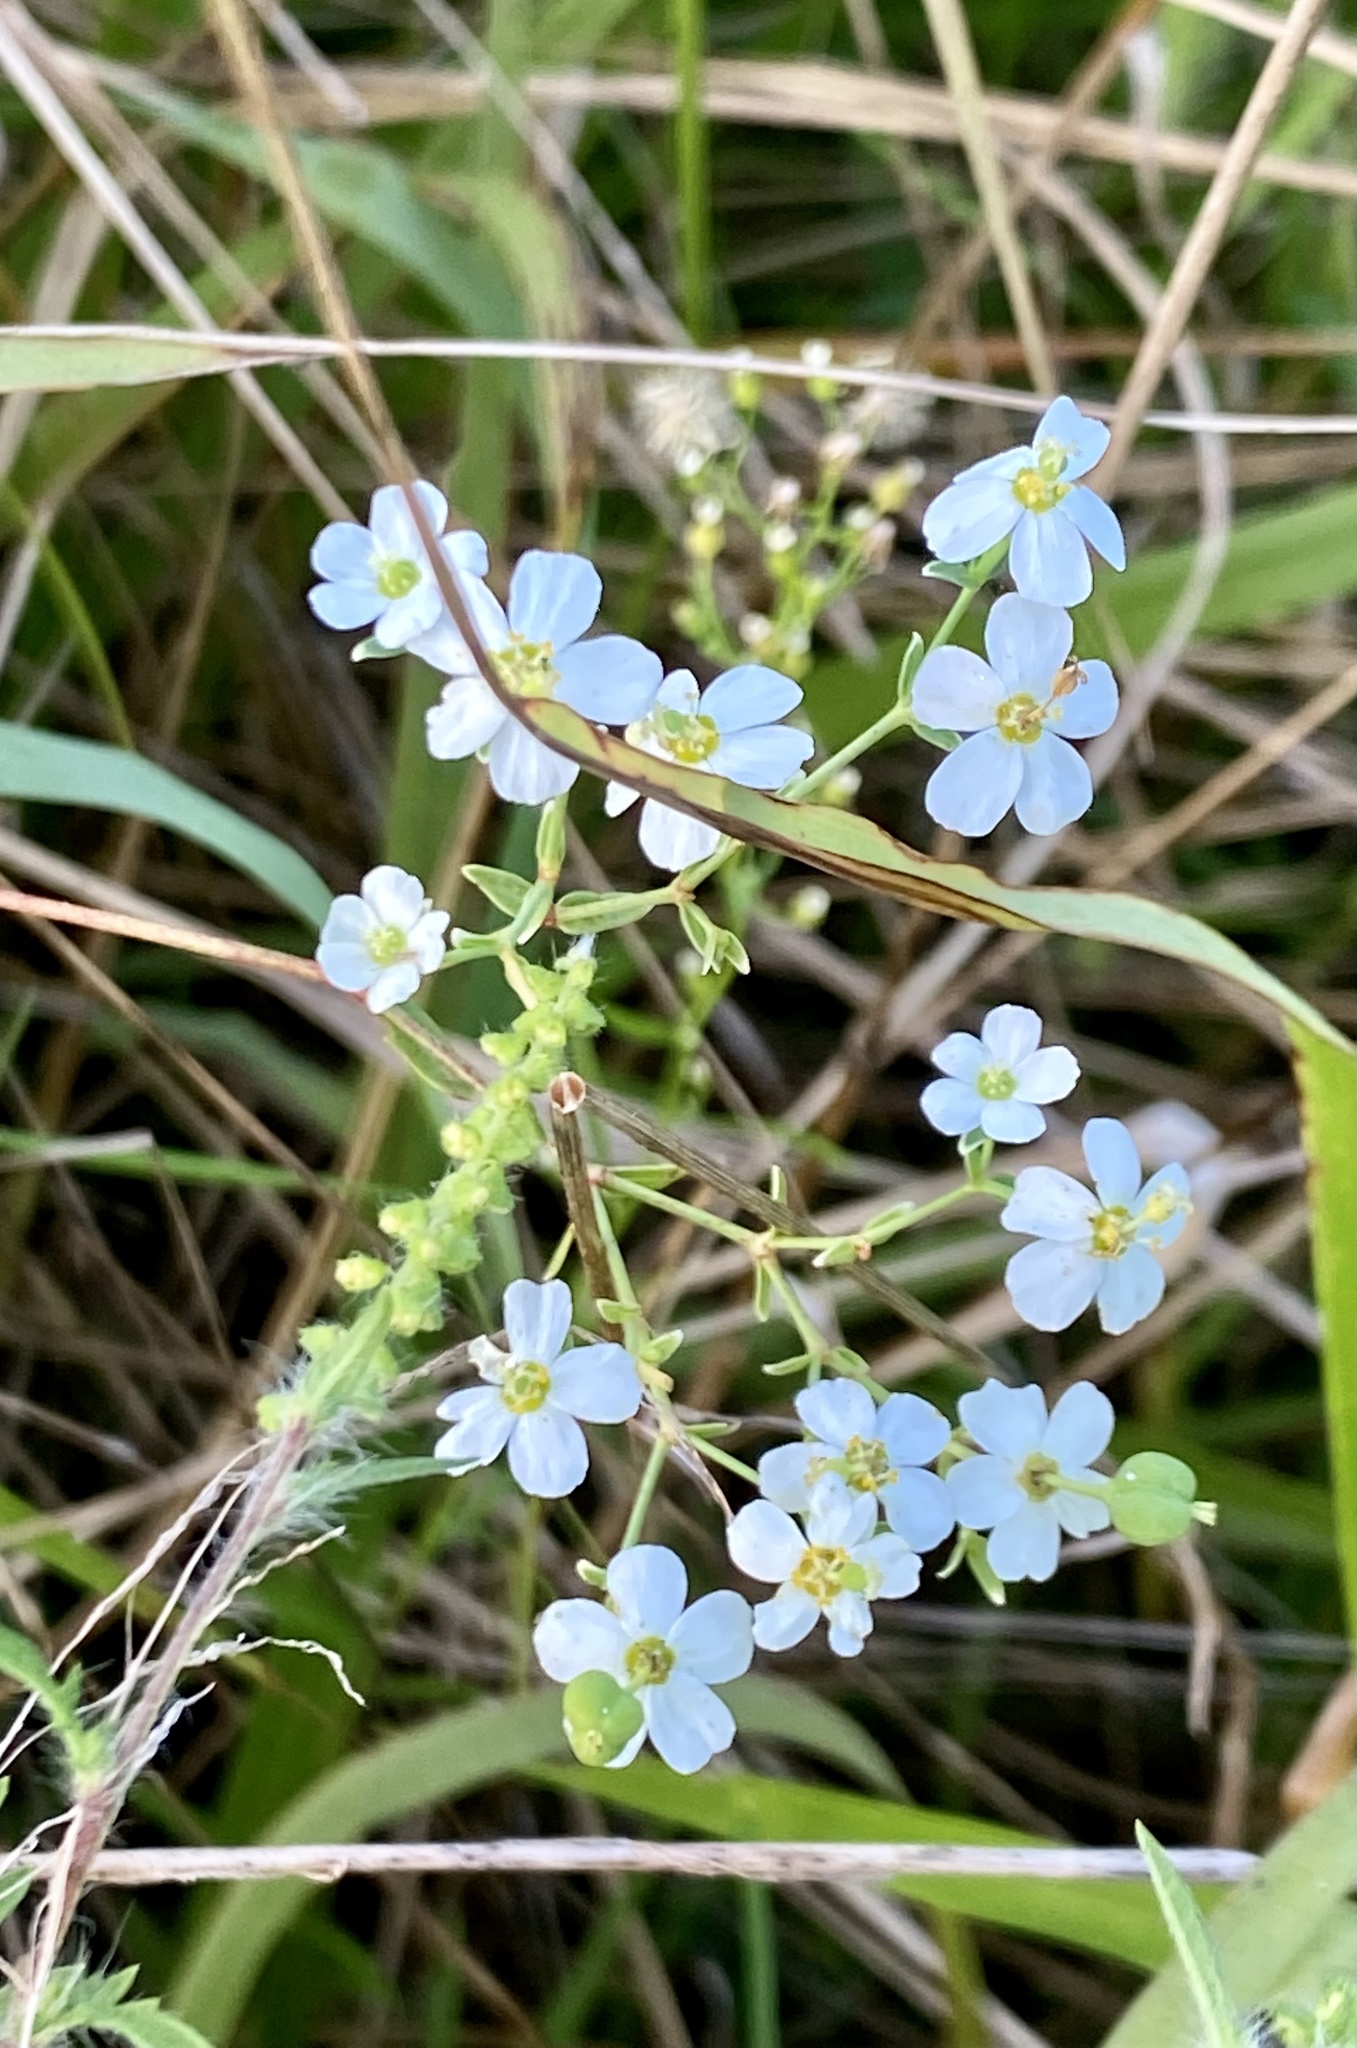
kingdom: Plantae
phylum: Tracheophyta
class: Magnoliopsida
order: Malpighiales
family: Euphorbiaceae
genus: Euphorbia
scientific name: Euphorbia corollata
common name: Flowering spurge
